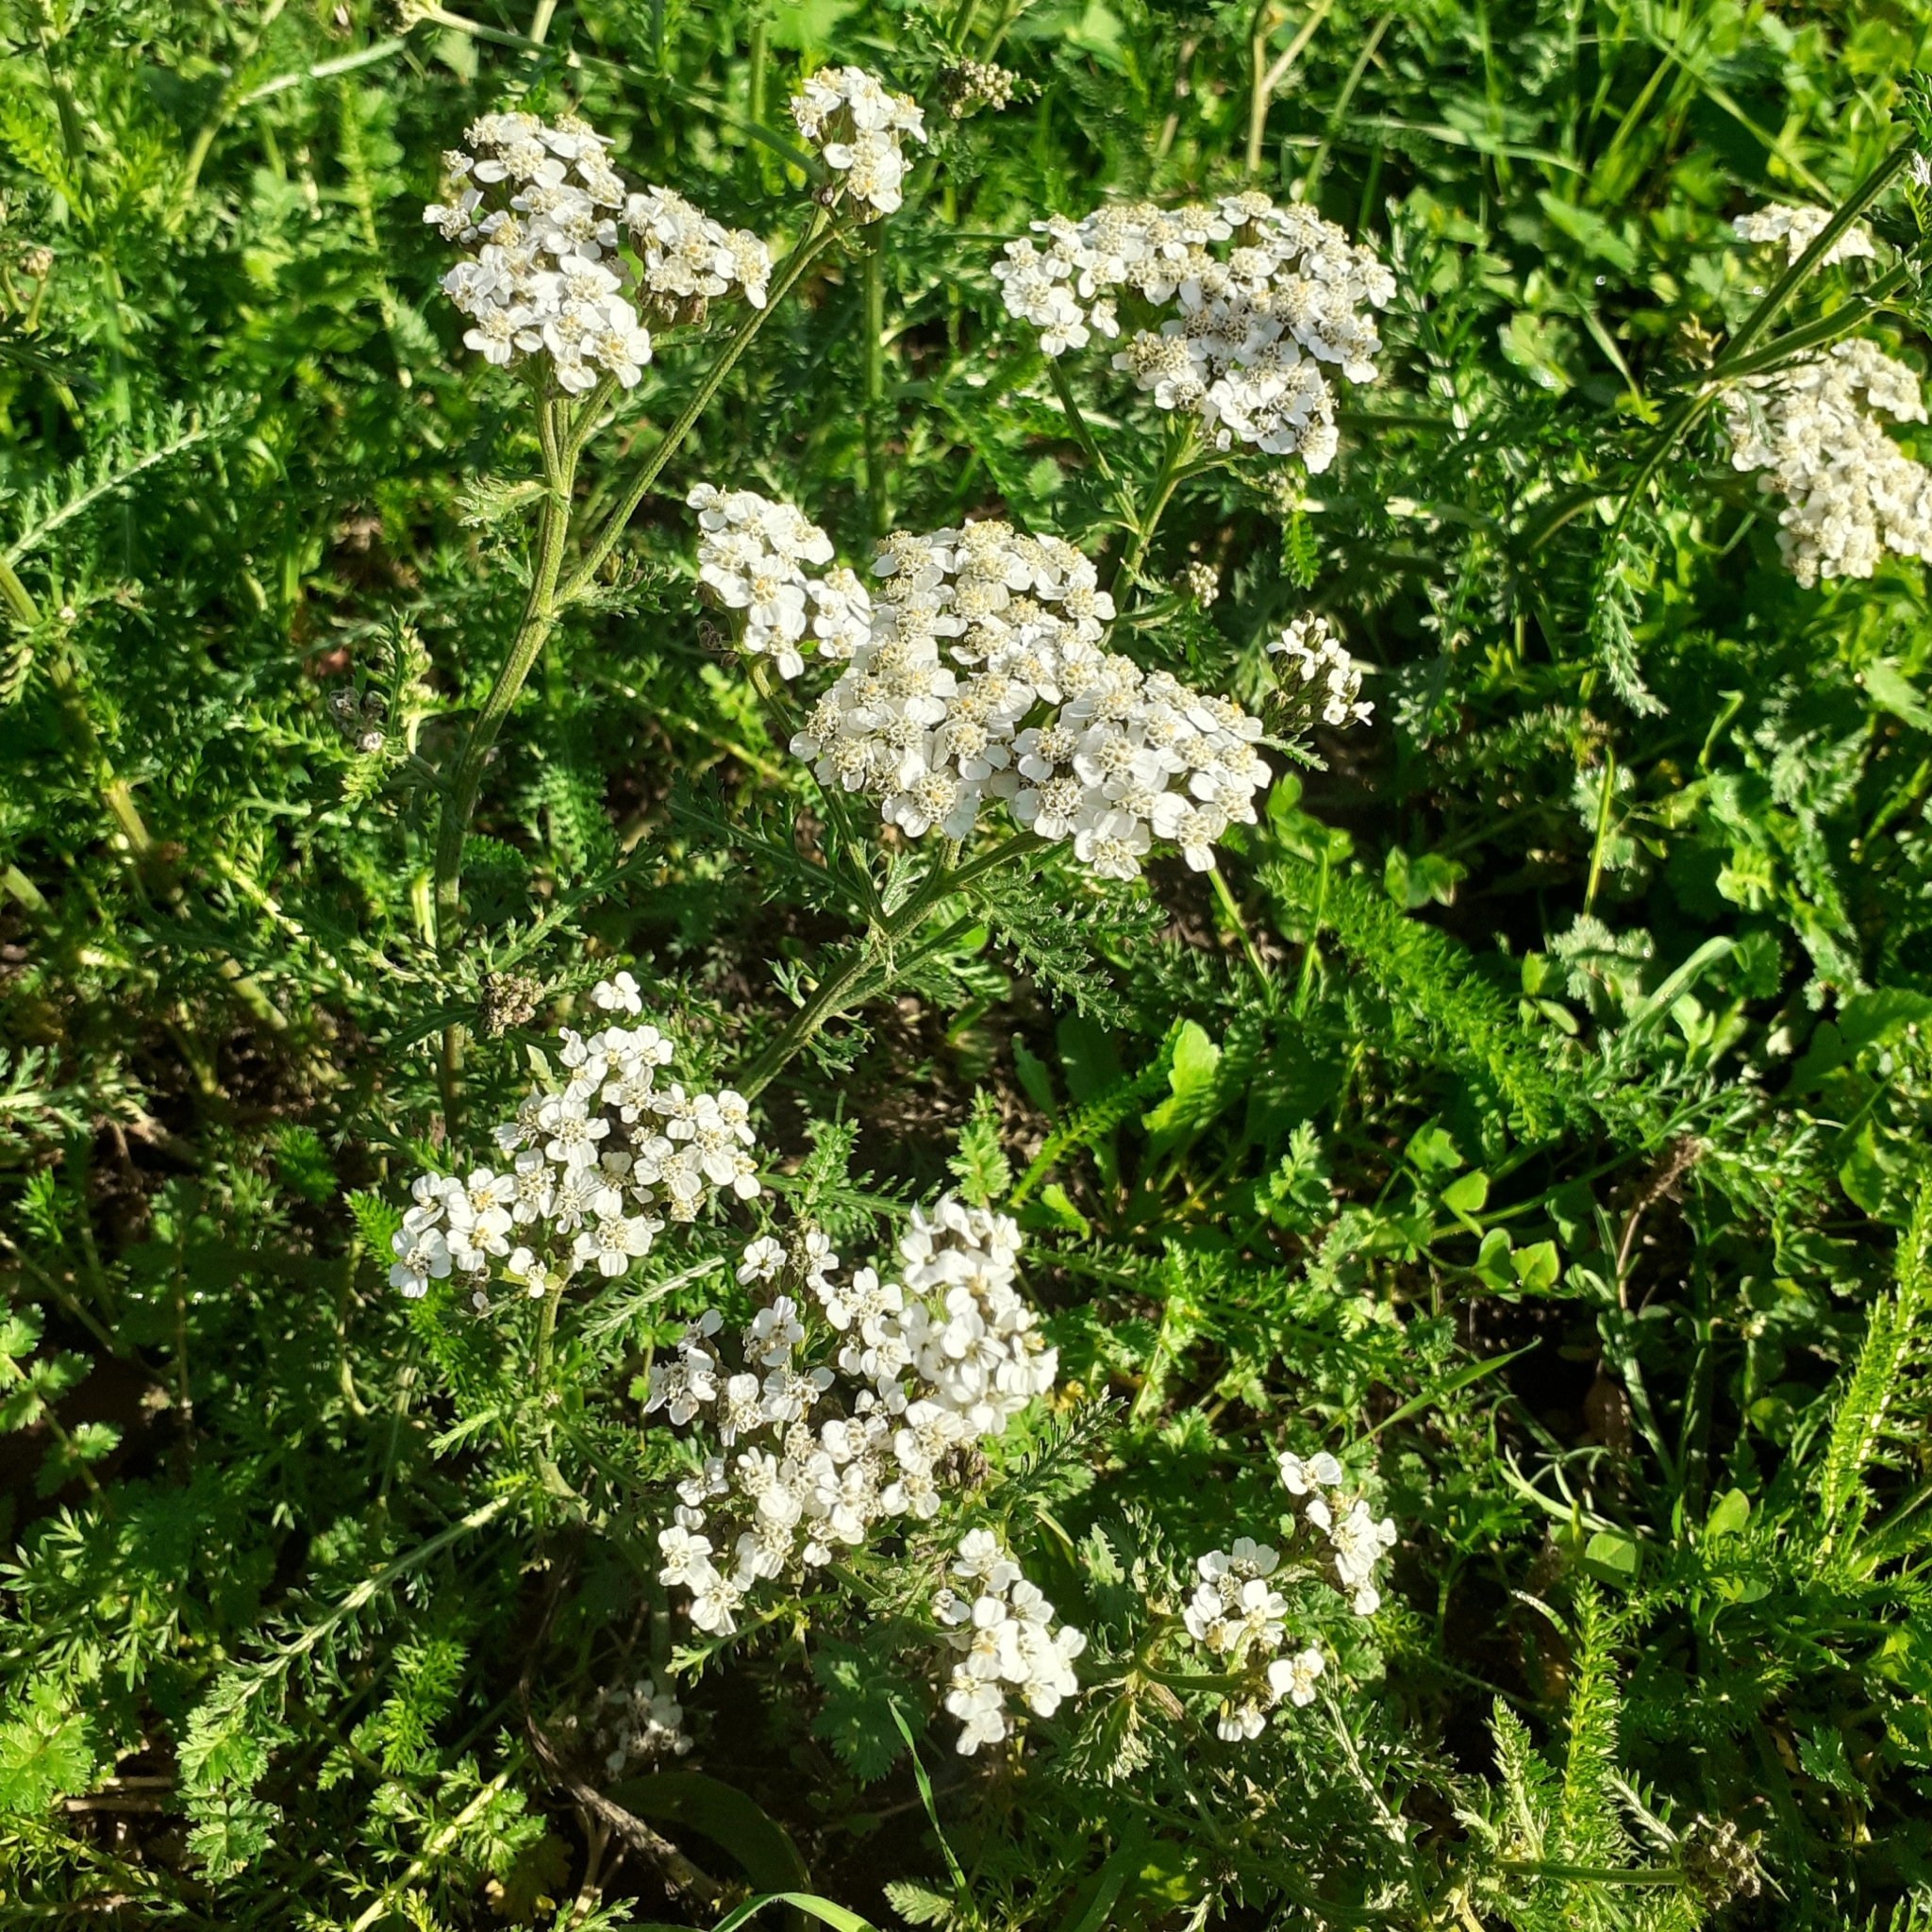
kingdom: Plantae
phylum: Tracheophyta
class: Magnoliopsida
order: Asterales
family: Asteraceae
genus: Achillea
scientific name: Achillea millefolium
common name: Yarrow
